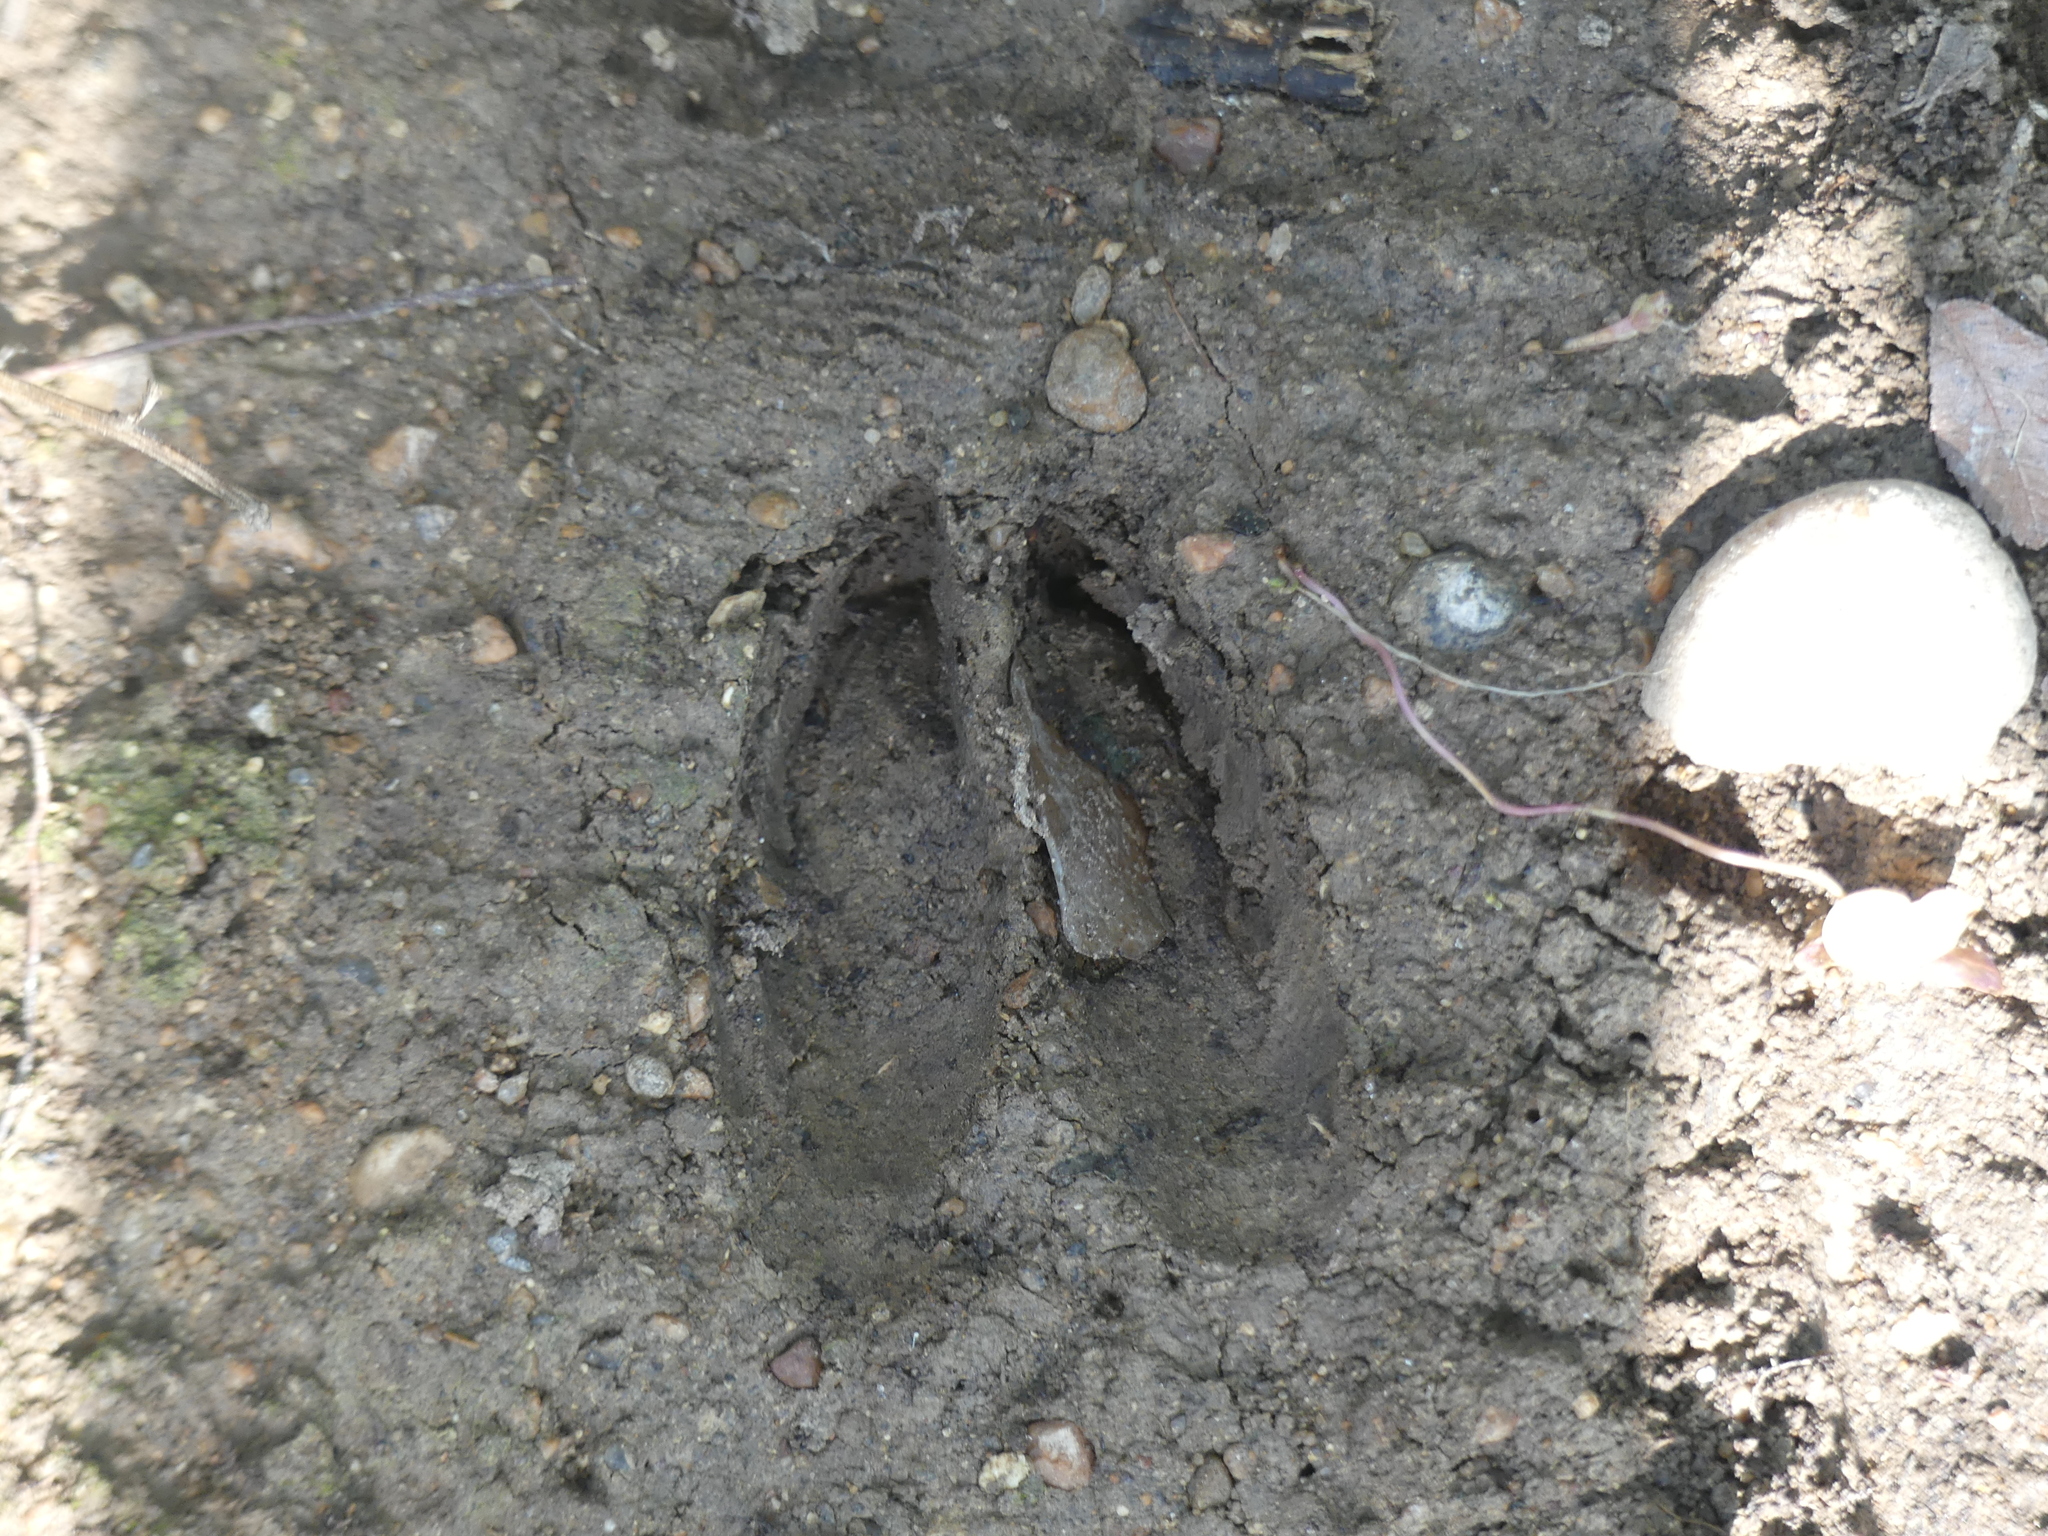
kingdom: Animalia
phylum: Chordata
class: Mammalia
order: Artiodactyla
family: Cervidae
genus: Odocoileus
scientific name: Odocoileus virginianus
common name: White-tailed deer
